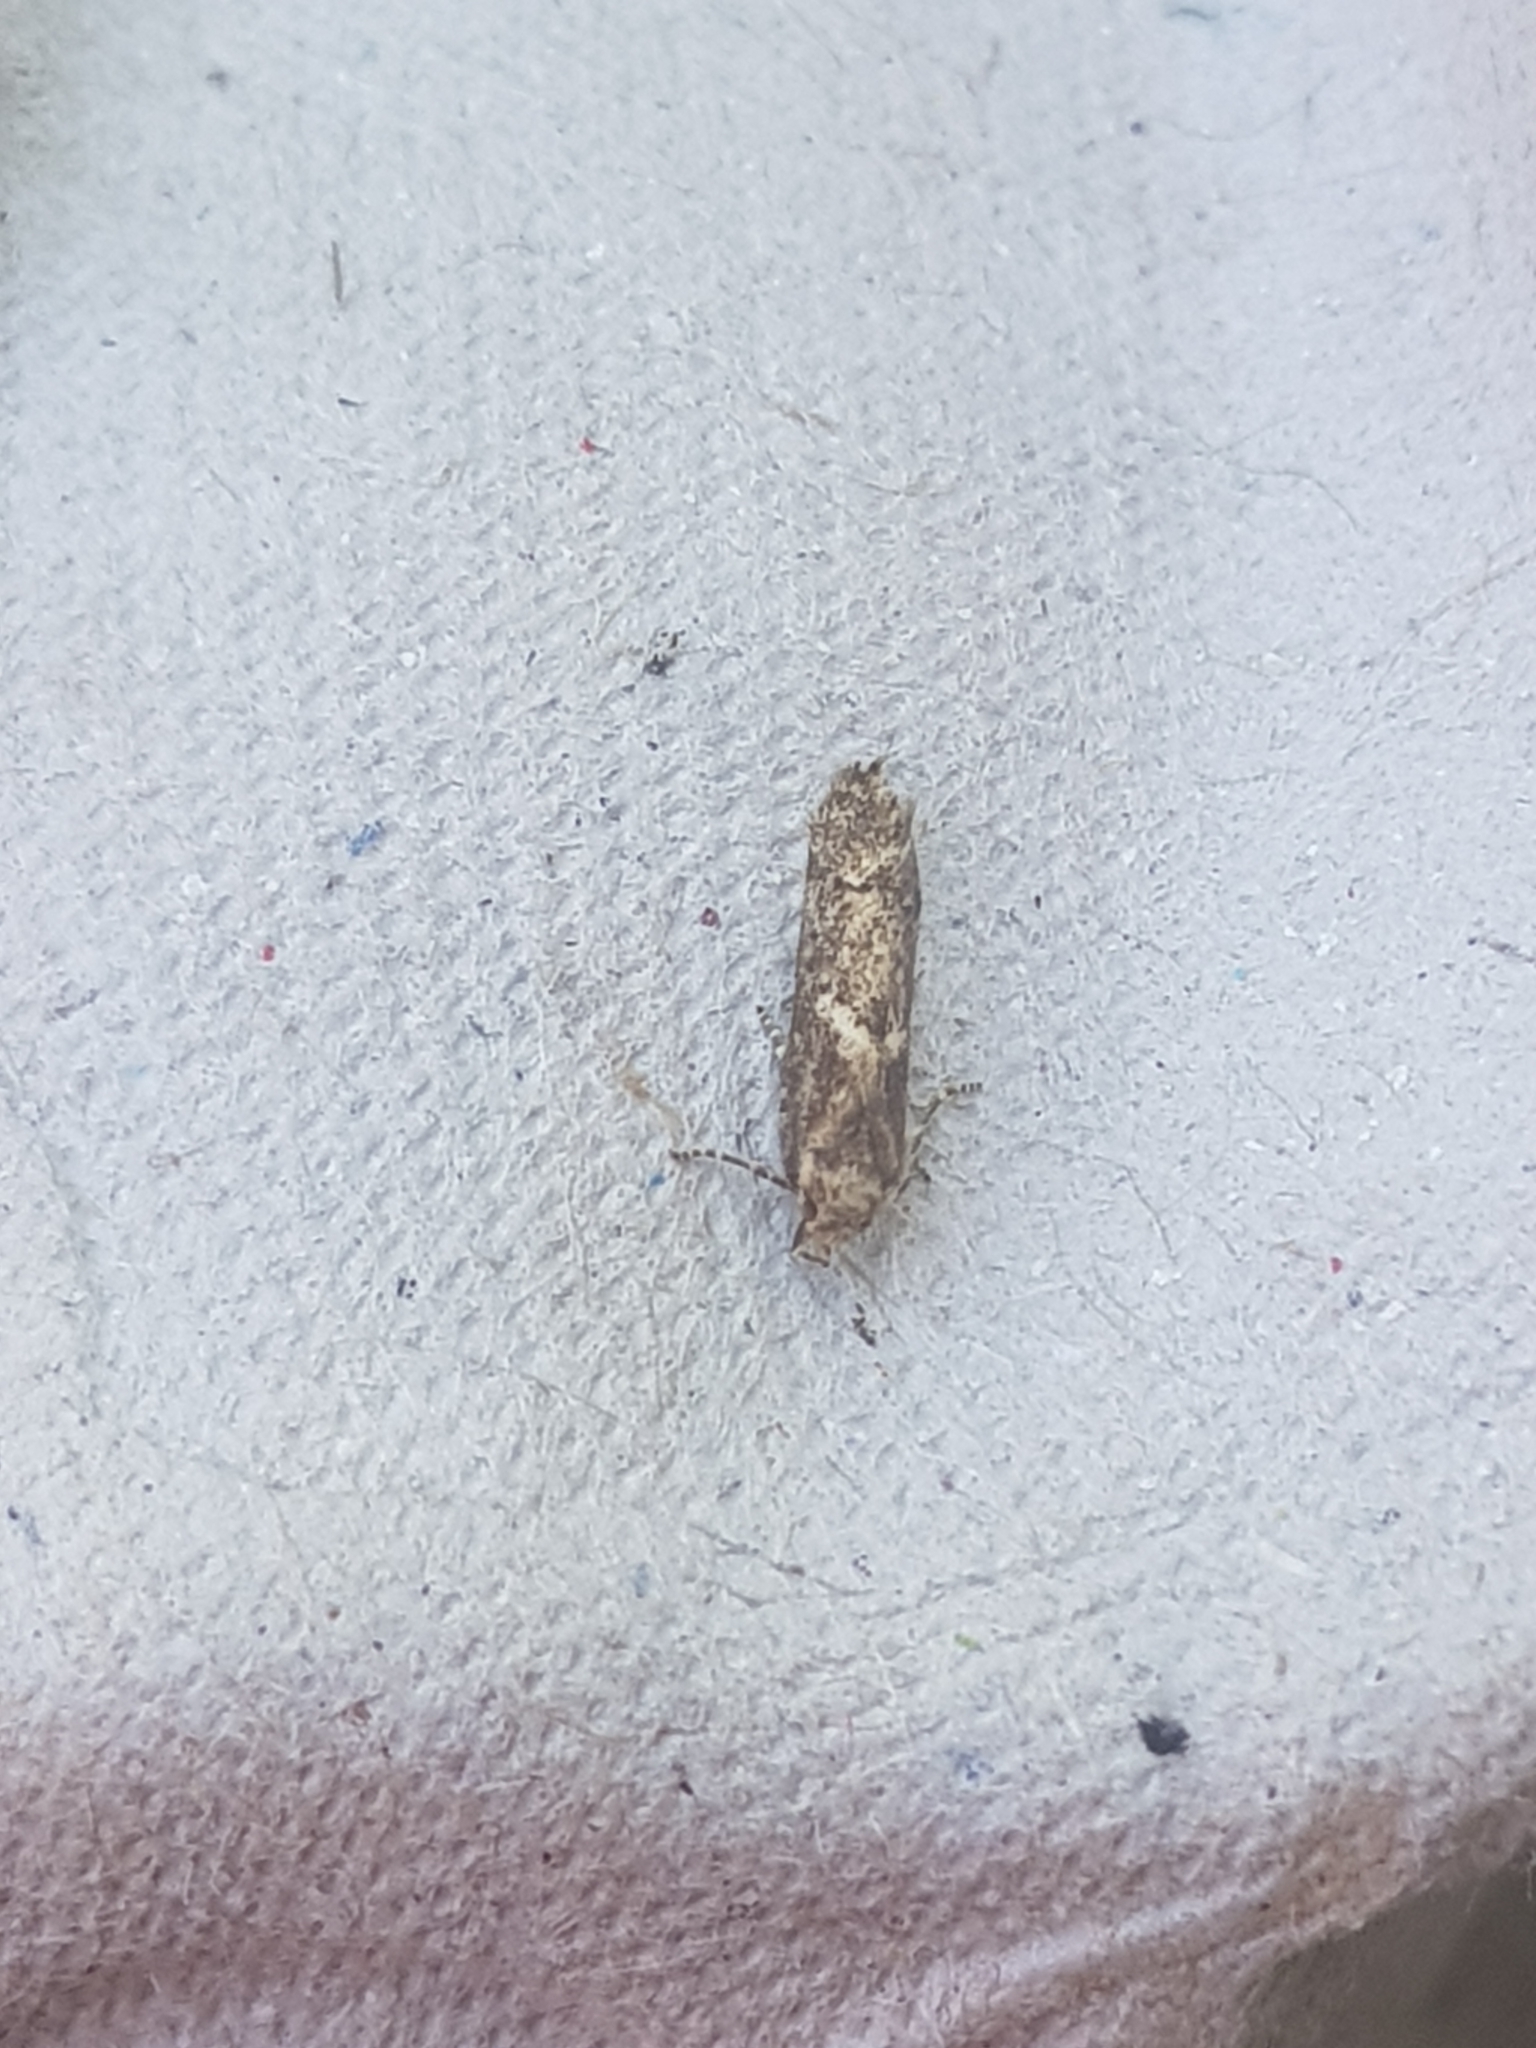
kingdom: Animalia
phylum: Arthropoda
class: Insecta
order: Lepidoptera
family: Blastobasidae
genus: Blastobasis
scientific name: Blastobasis adustella
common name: Dingy dowd
